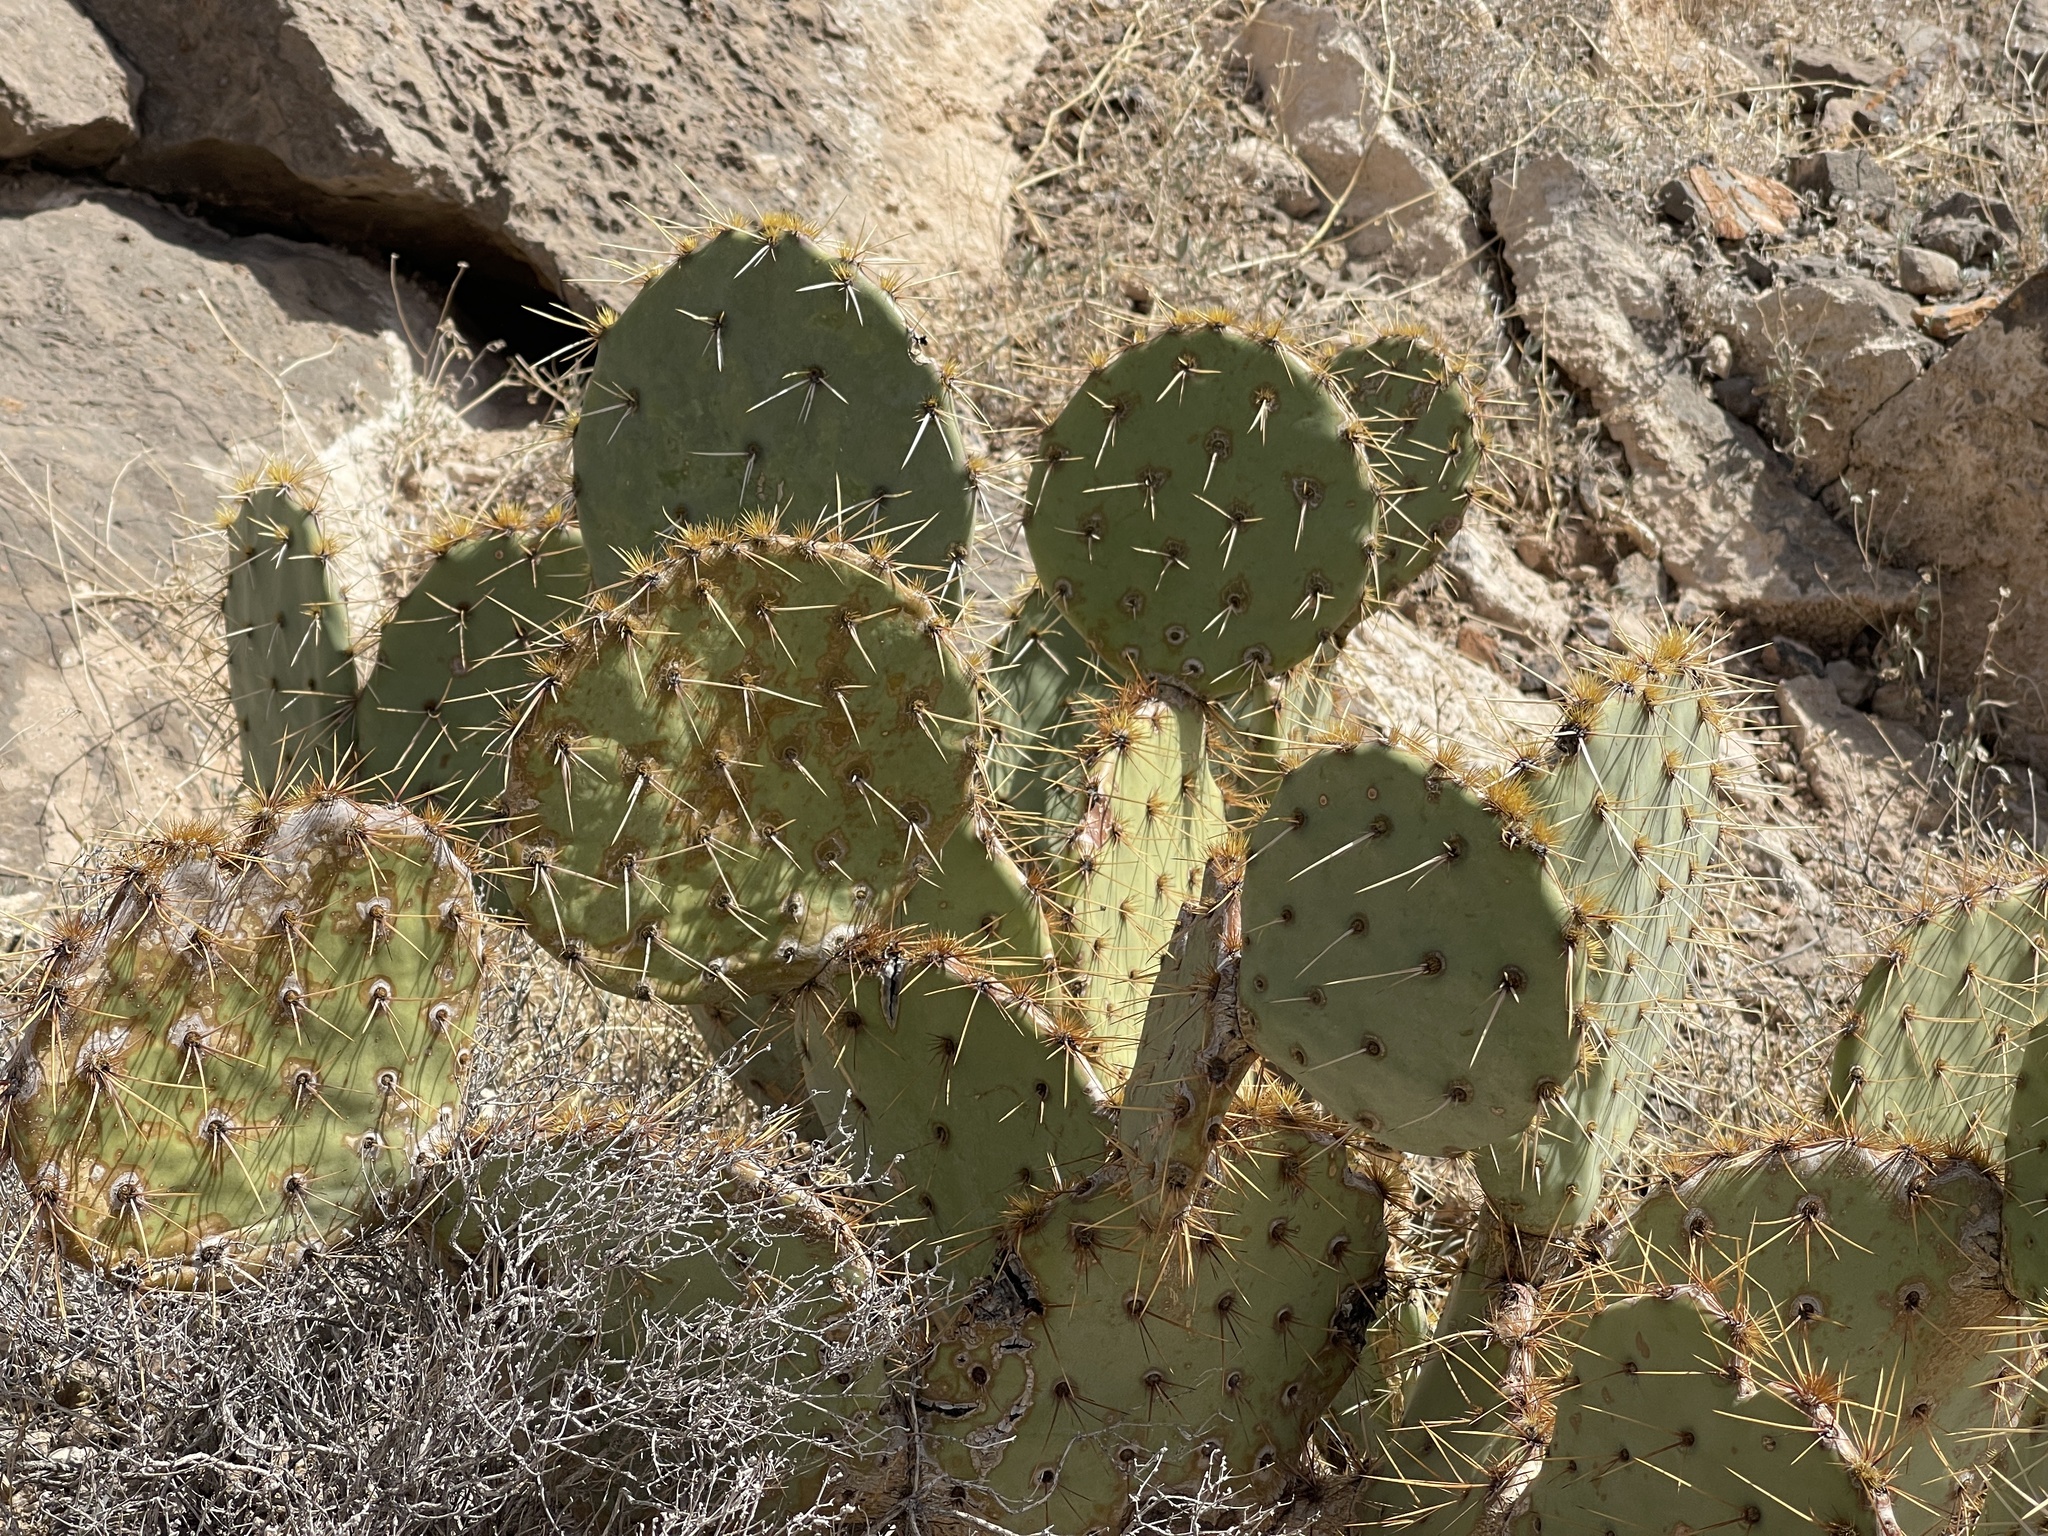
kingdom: Plantae
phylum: Tracheophyta
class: Magnoliopsida
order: Caryophyllales
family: Cactaceae
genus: Opuntia
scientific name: Opuntia engelmannii
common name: Cactus-apple
